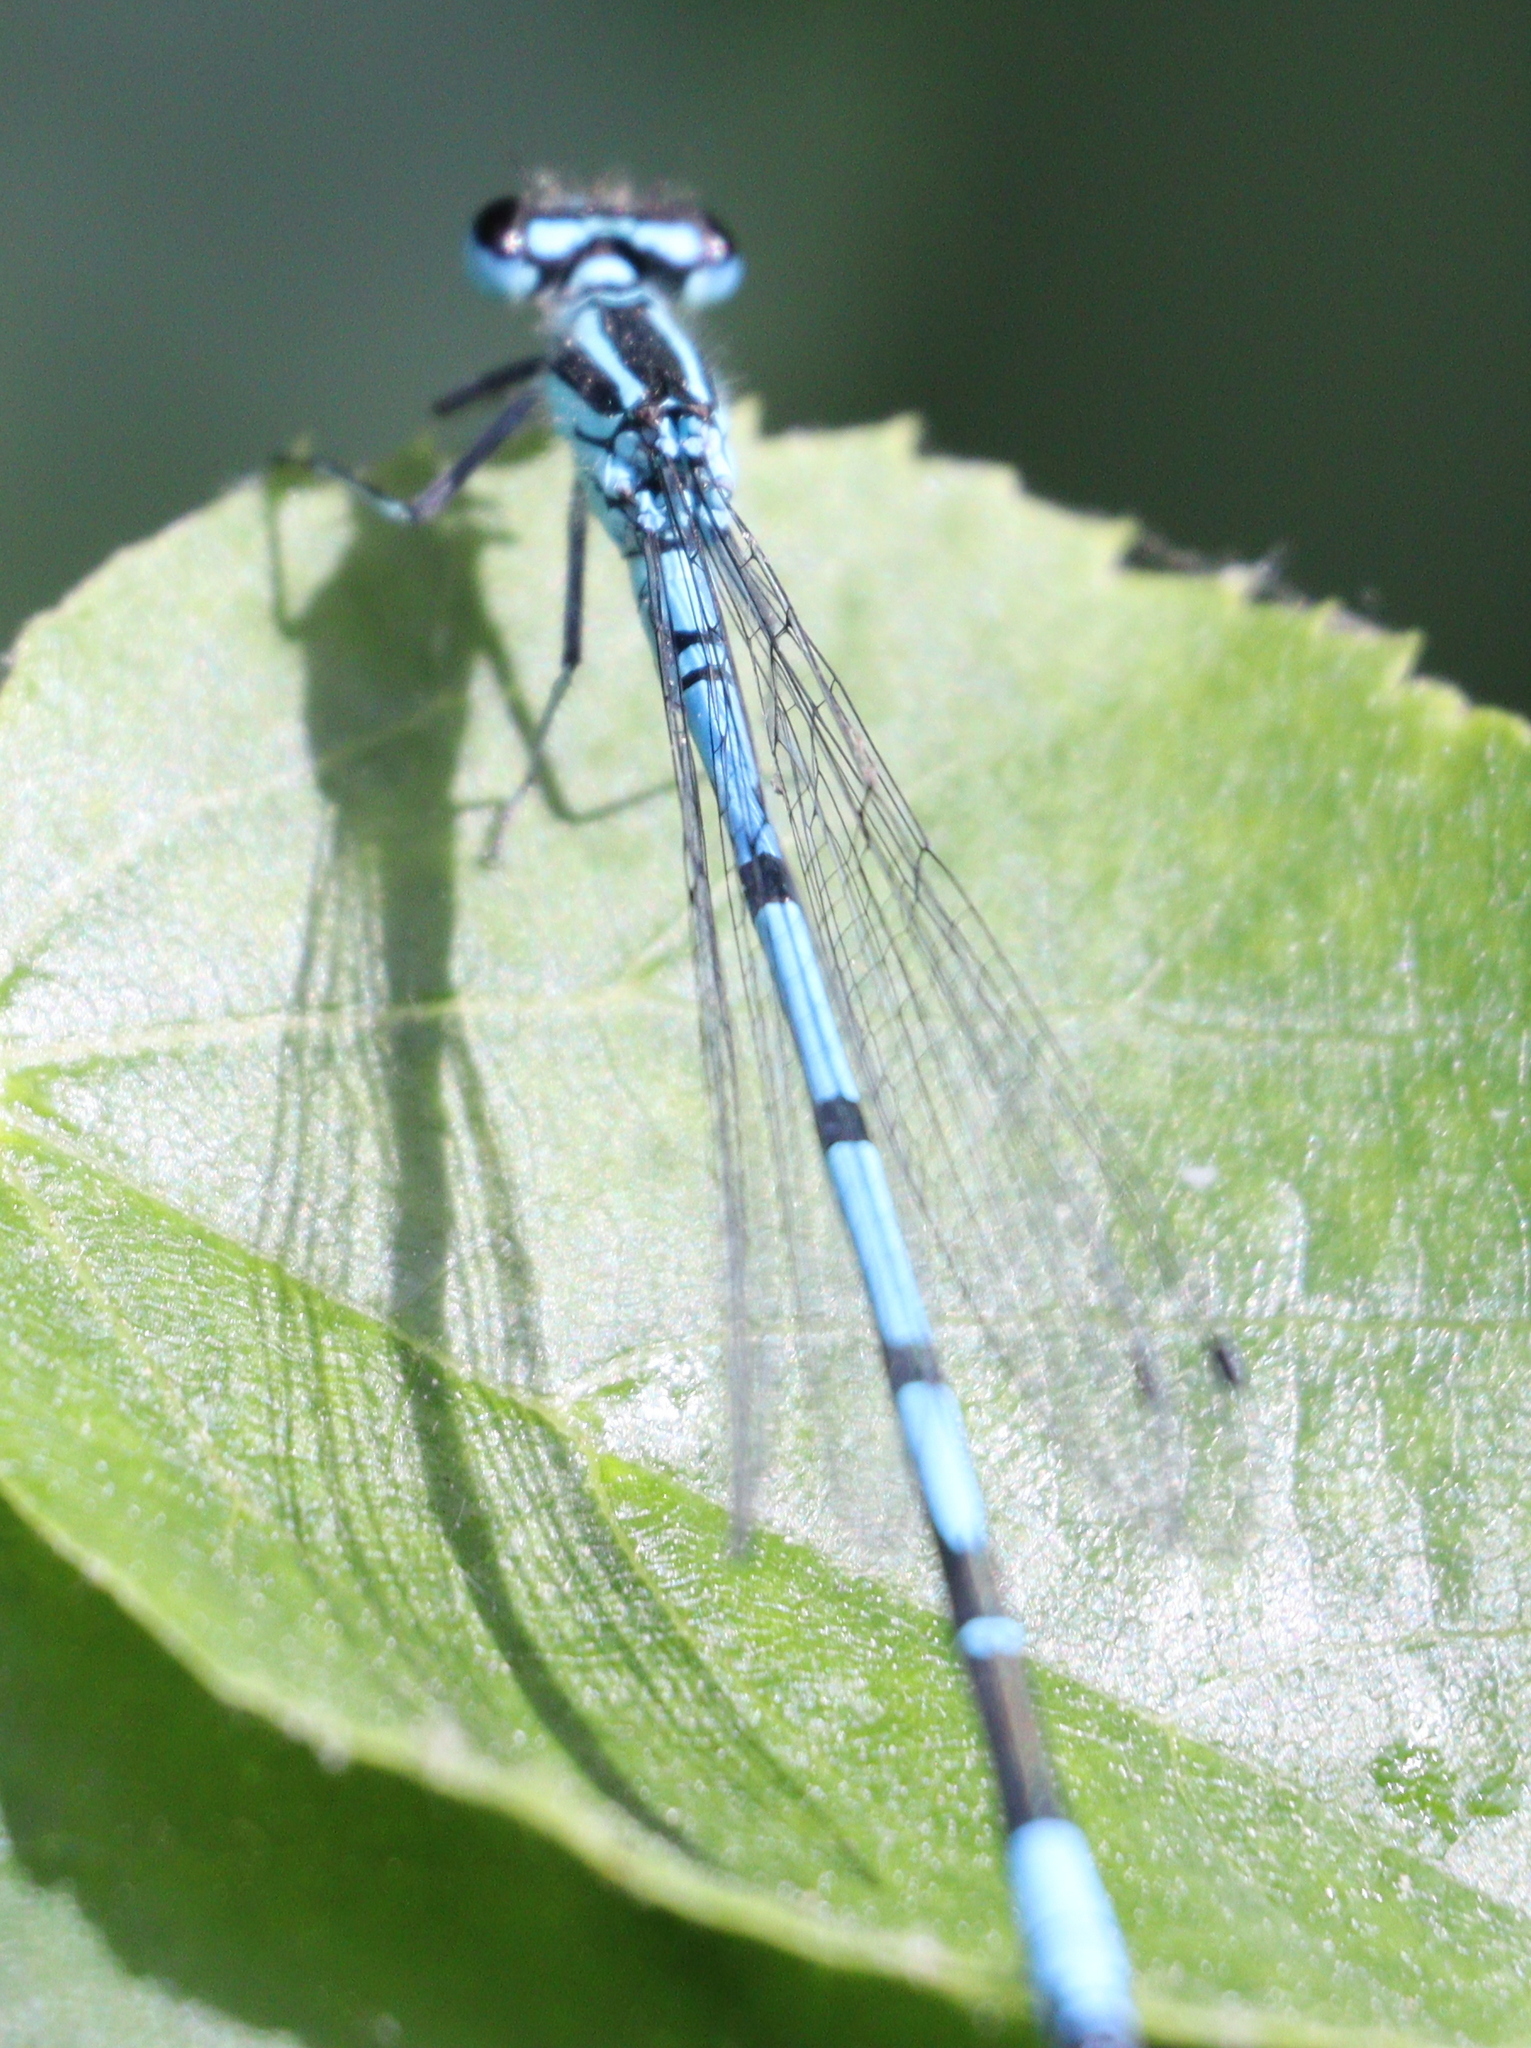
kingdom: Animalia
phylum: Arthropoda
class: Insecta
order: Odonata
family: Coenagrionidae
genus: Coenagrion
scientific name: Coenagrion puella
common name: Azure damselfly
